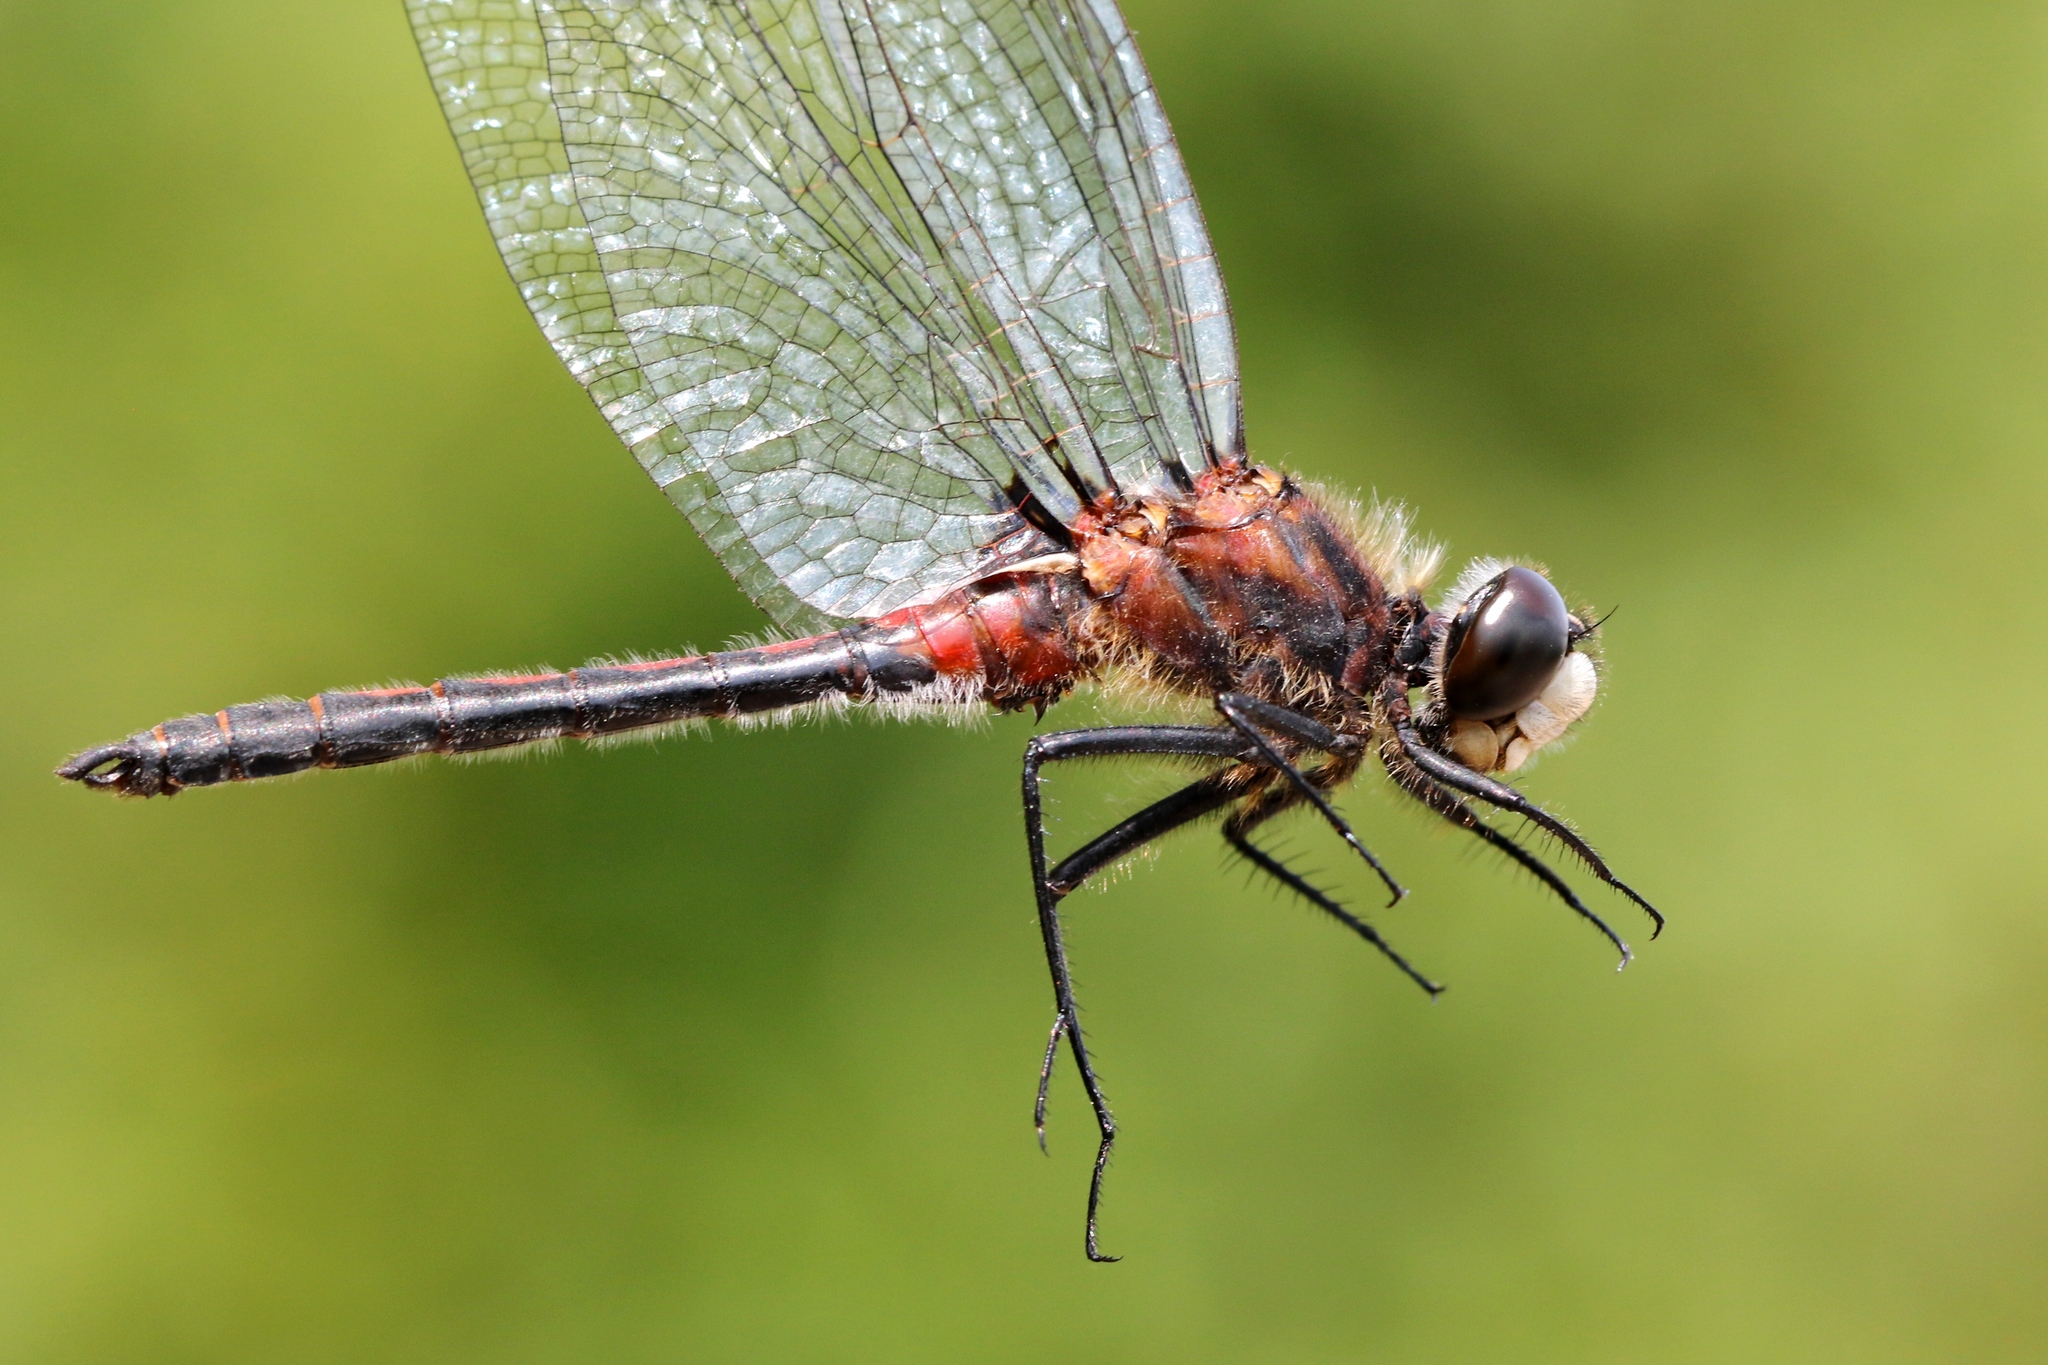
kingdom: Animalia
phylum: Arthropoda
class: Insecta
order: Odonata
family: Libellulidae
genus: Leucorrhinia
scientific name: Leucorrhinia hudsonica
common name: Hudsonian whiteface
